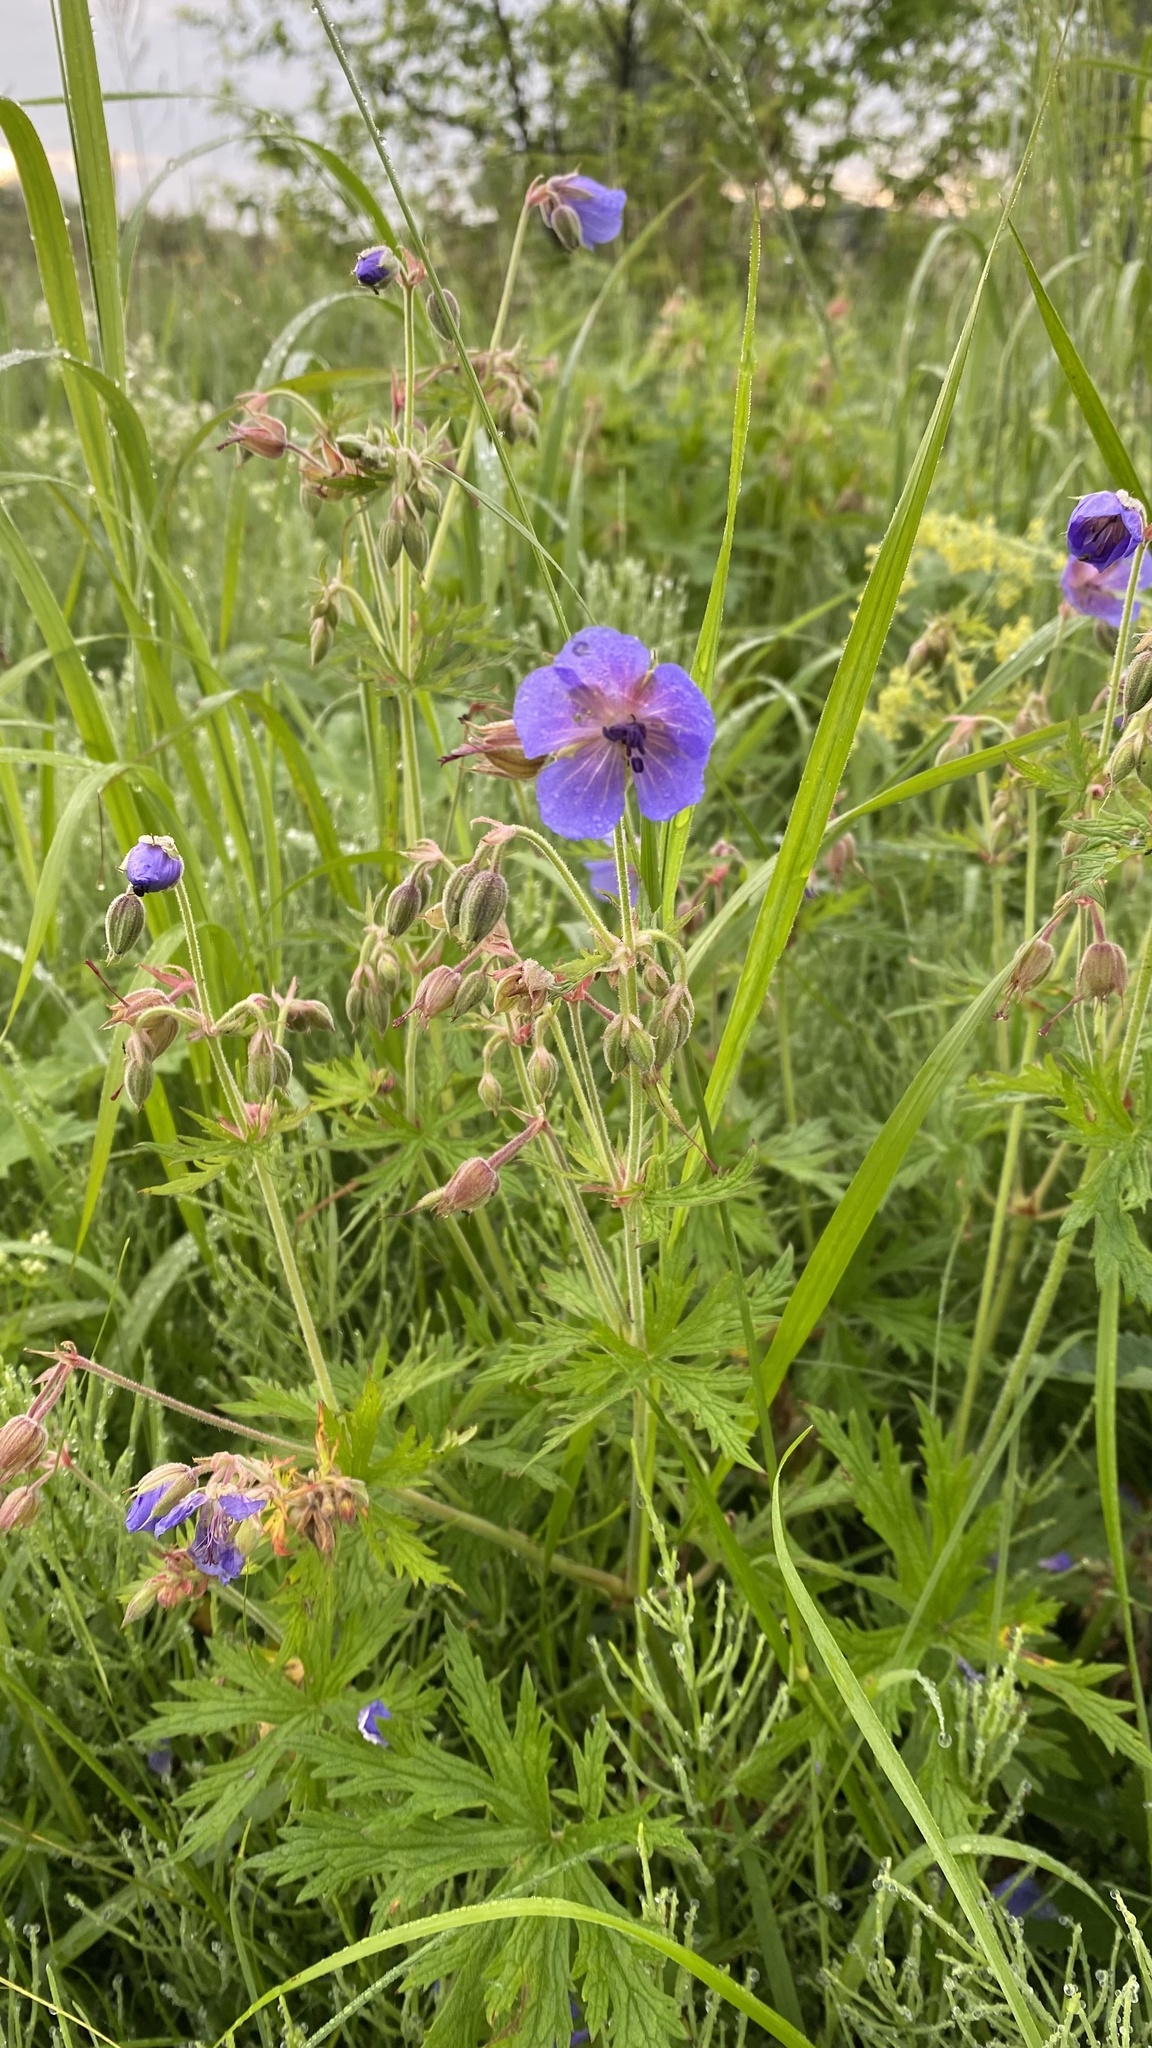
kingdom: Plantae
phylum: Tracheophyta
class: Magnoliopsida
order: Geraniales
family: Geraniaceae
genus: Geranium
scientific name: Geranium pratense
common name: Meadow crane's-bill
